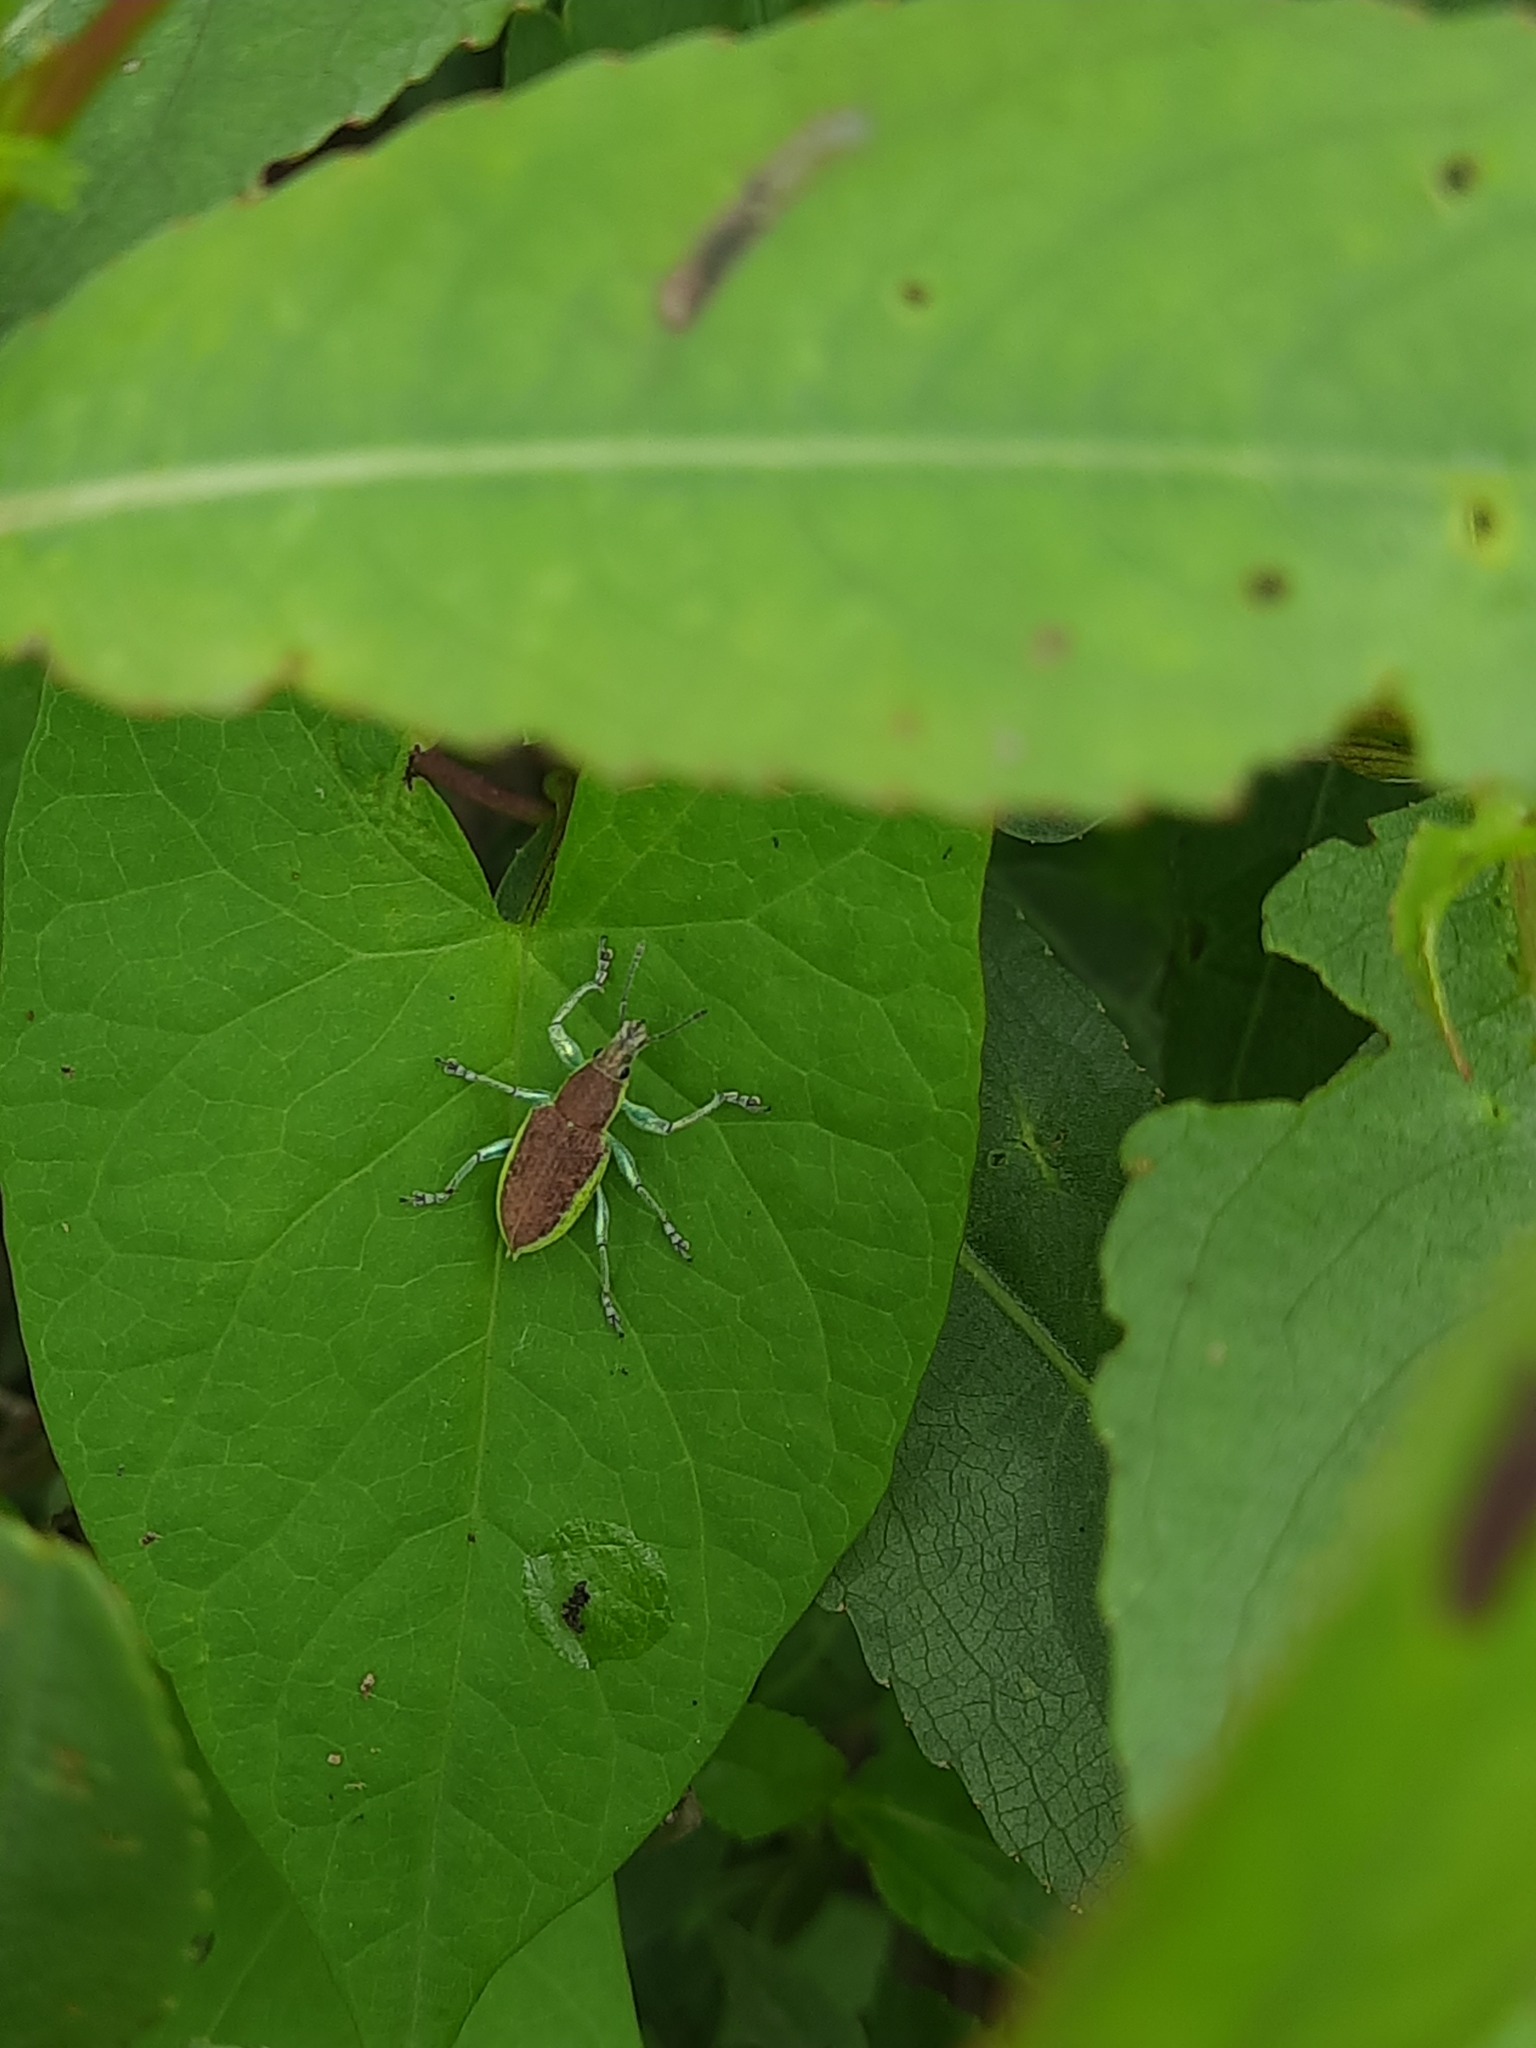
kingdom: Animalia
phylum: Arthropoda
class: Insecta
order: Coleoptera
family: Curculionidae
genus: Chlorophanus
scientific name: Chlorophanus flavescens
